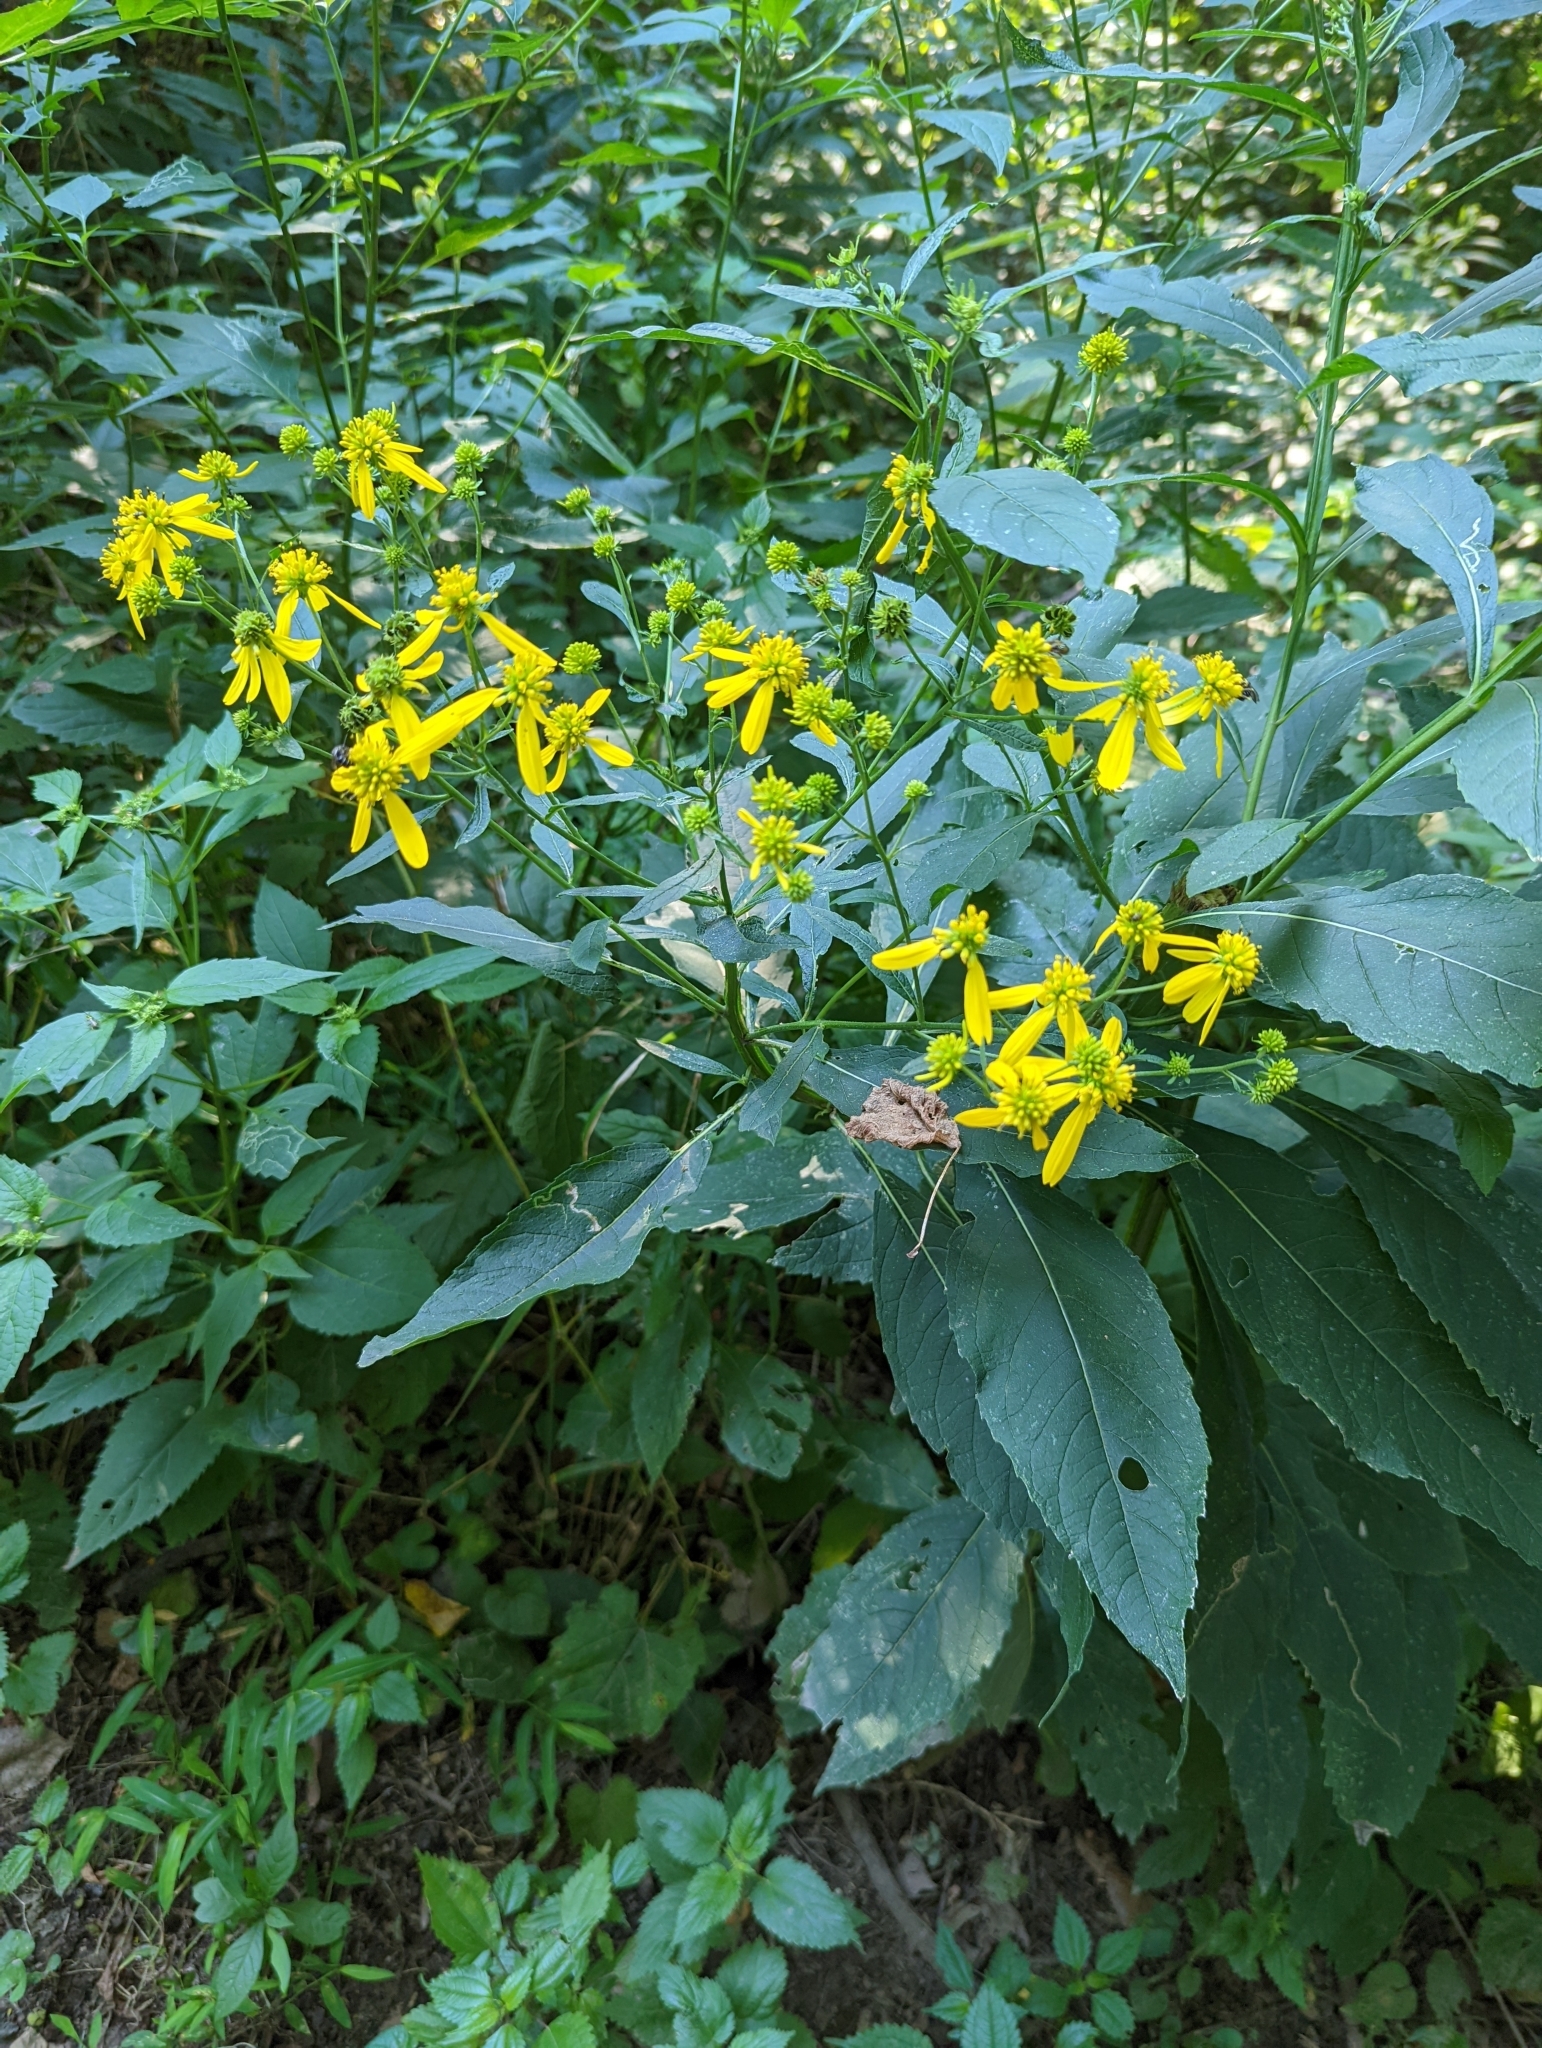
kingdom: Plantae
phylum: Tracheophyta
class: Magnoliopsida
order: Asterales
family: Asteraceae
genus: Verbesina
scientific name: Verbesina alternifolia
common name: Wingstem
